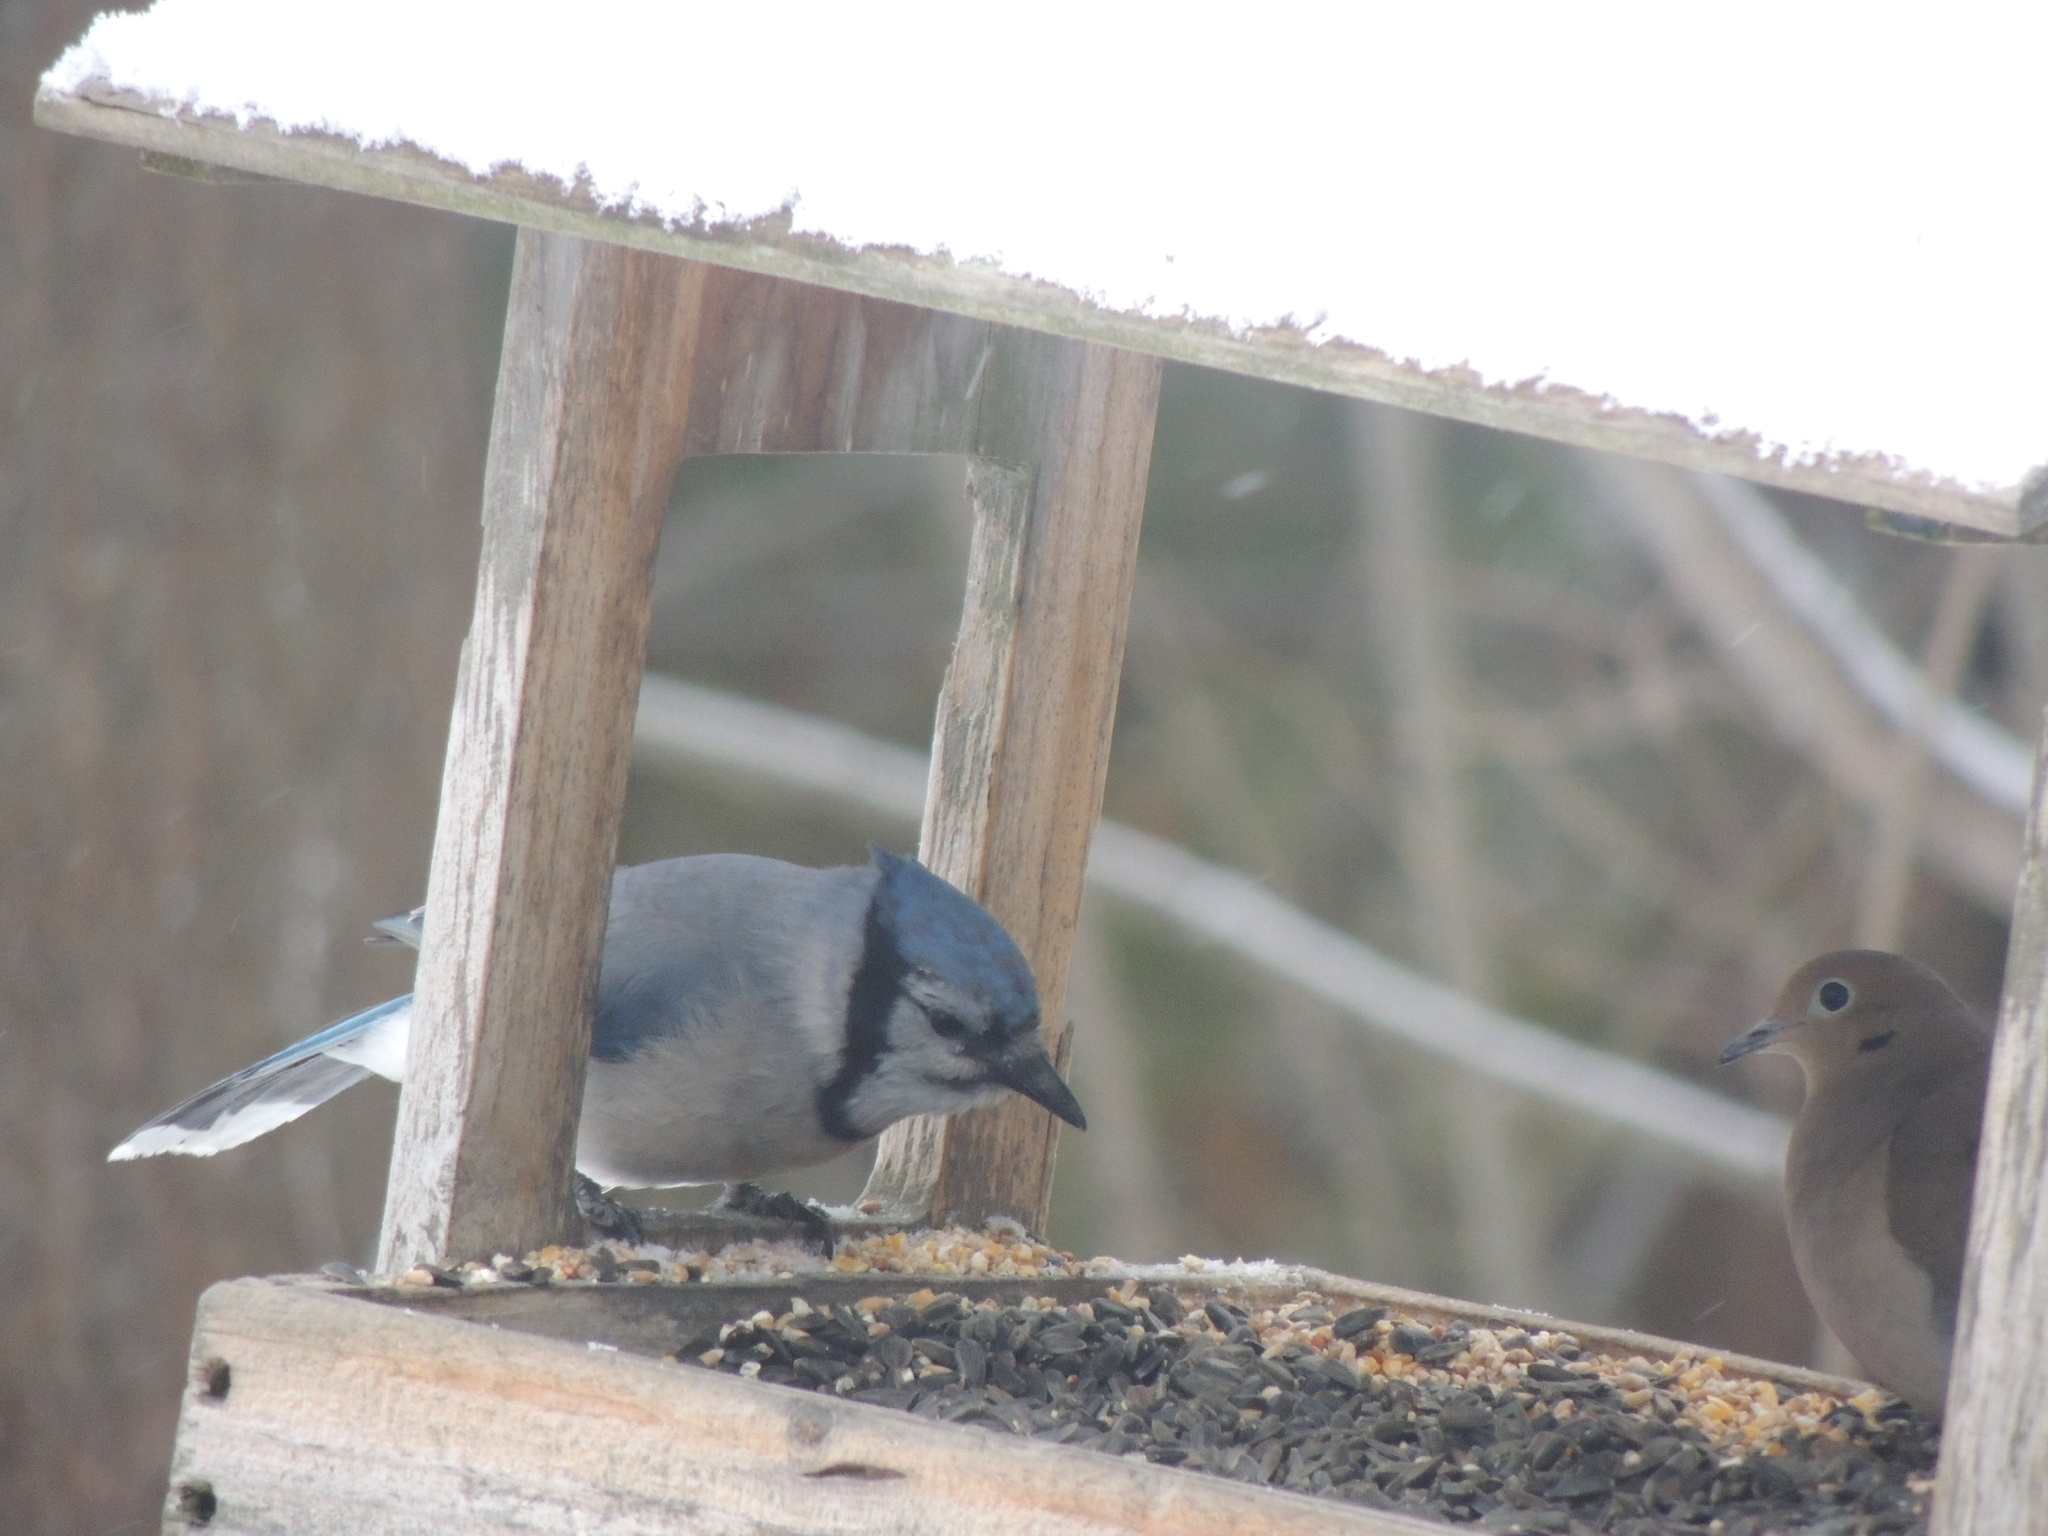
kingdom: Animalia
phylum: Chordata
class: Aves
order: Passeriformes
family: Corvidae
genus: Cyanocitta
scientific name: Cyanocitta cristata
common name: Blue jay
